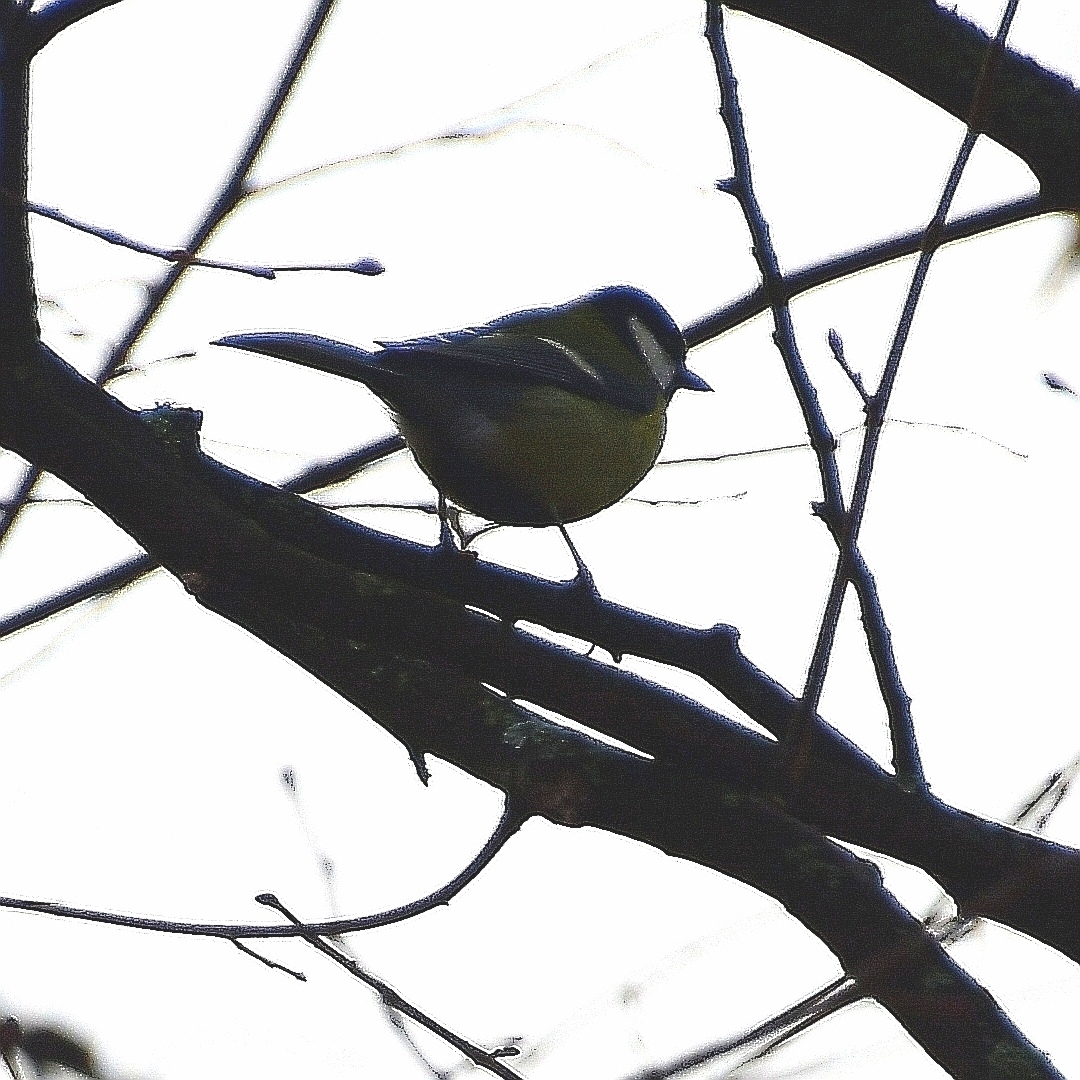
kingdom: Animalia
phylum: Chordata
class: Aves
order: Passeriformes
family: Paridae
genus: Parus
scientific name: Parus major
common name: Great tit
